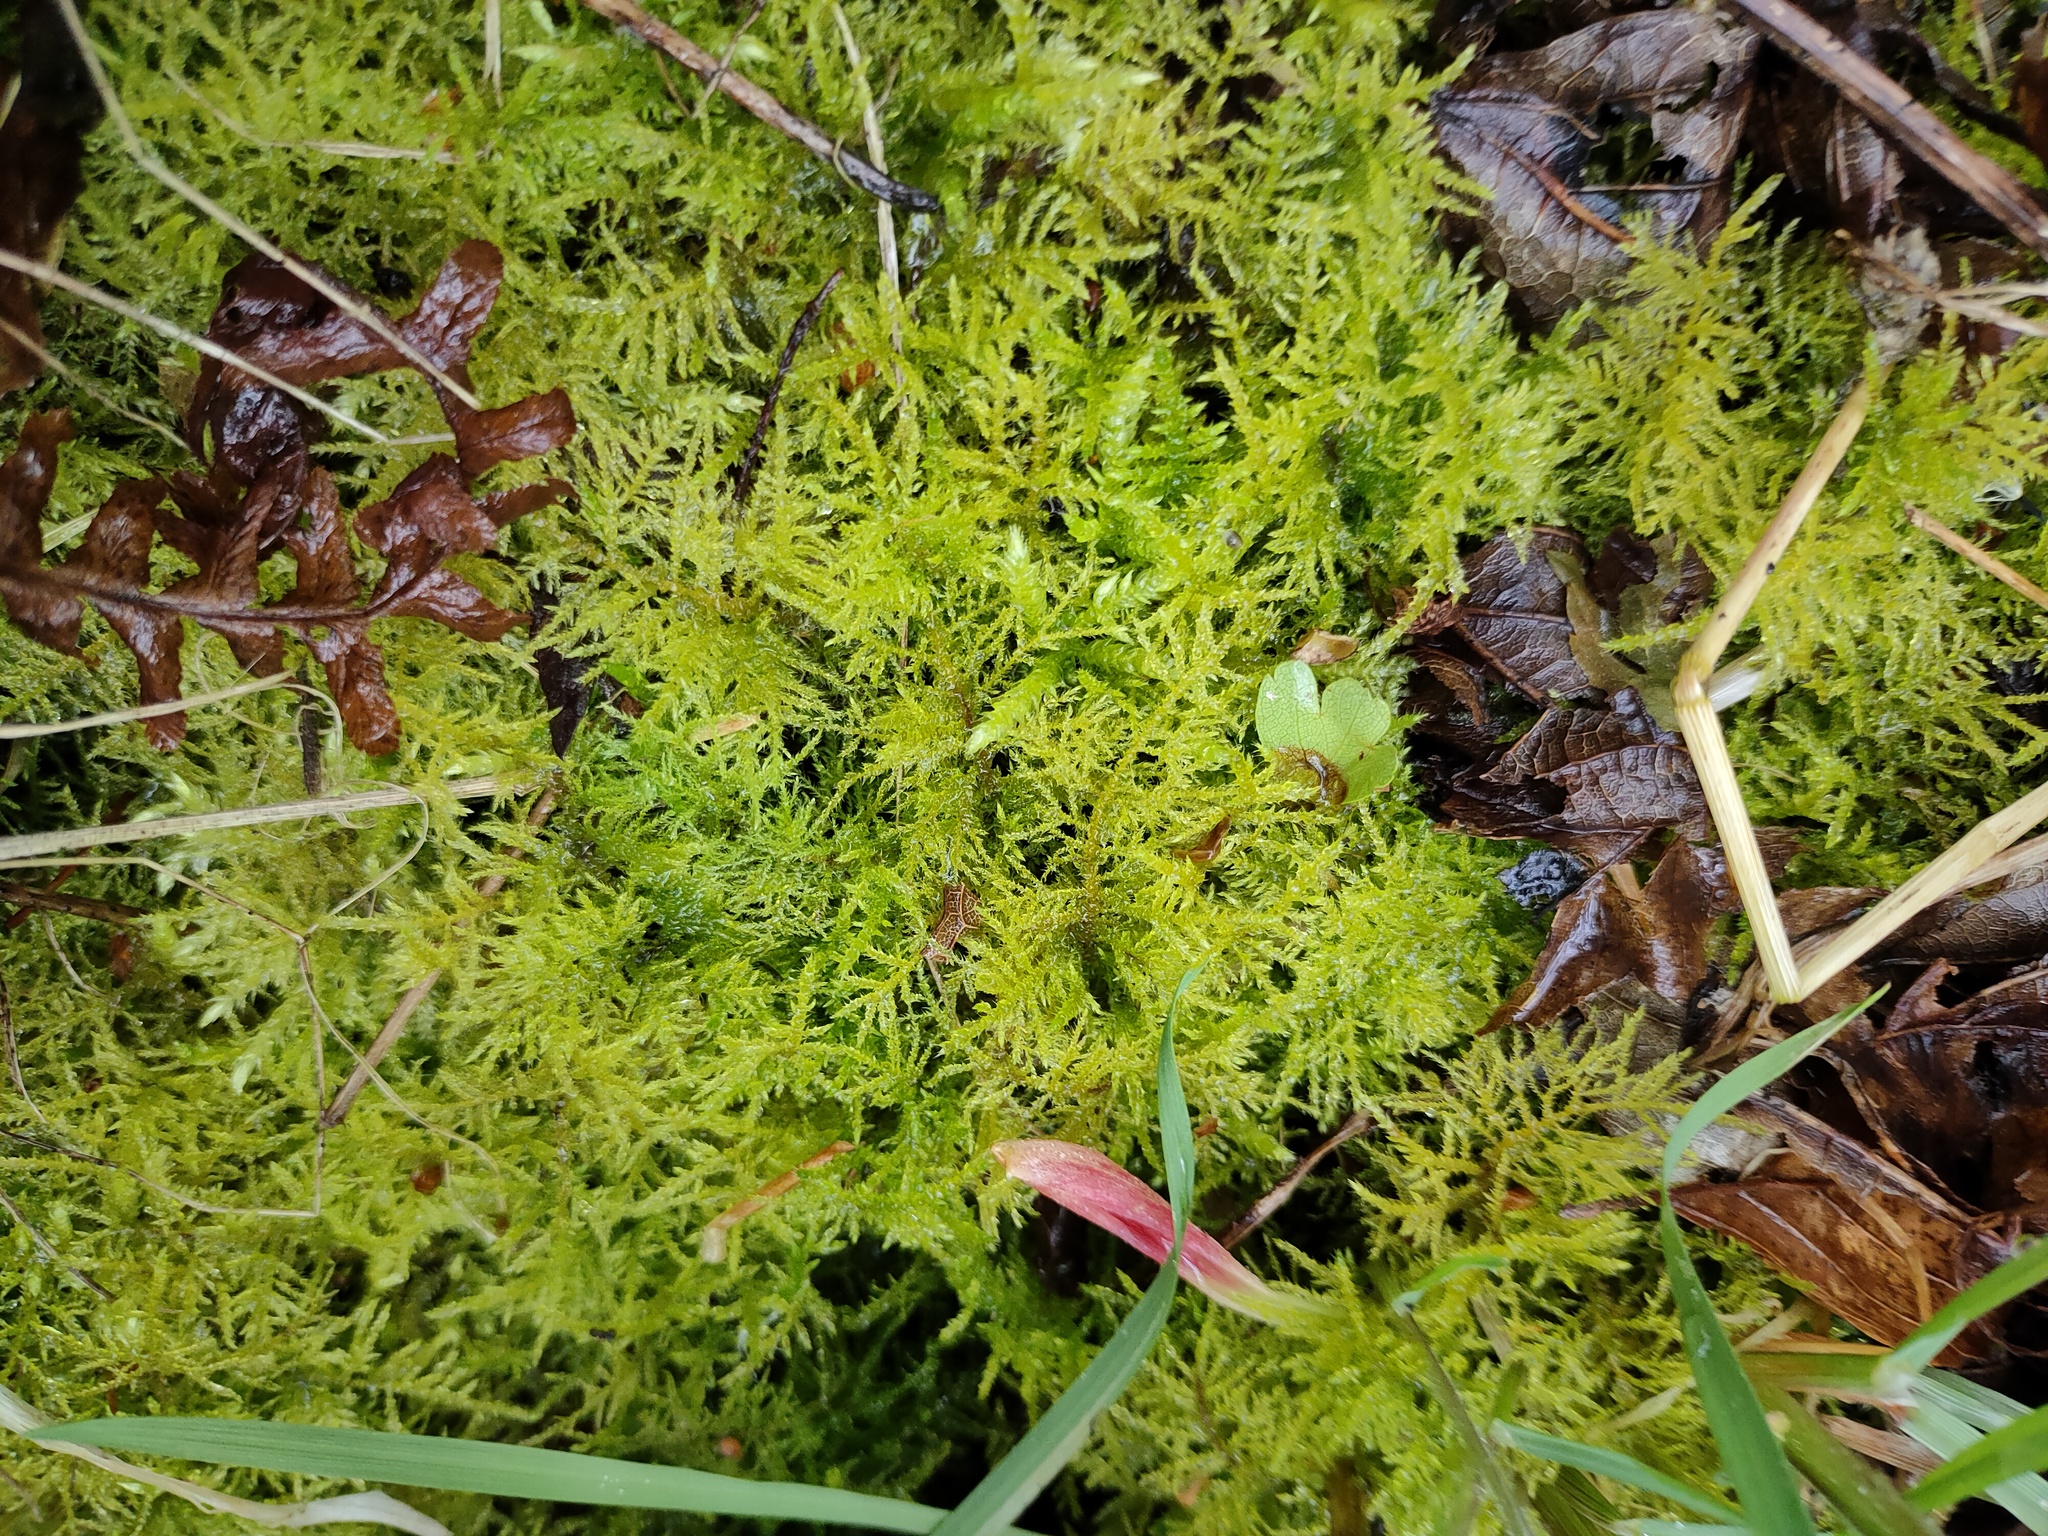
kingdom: Plantae
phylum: Bryophyta
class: Bryopsida
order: Hypnales
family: Brachytheciaceae
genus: Kindbergia
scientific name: Kindbergia praelonga
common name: Slender beaked moss
